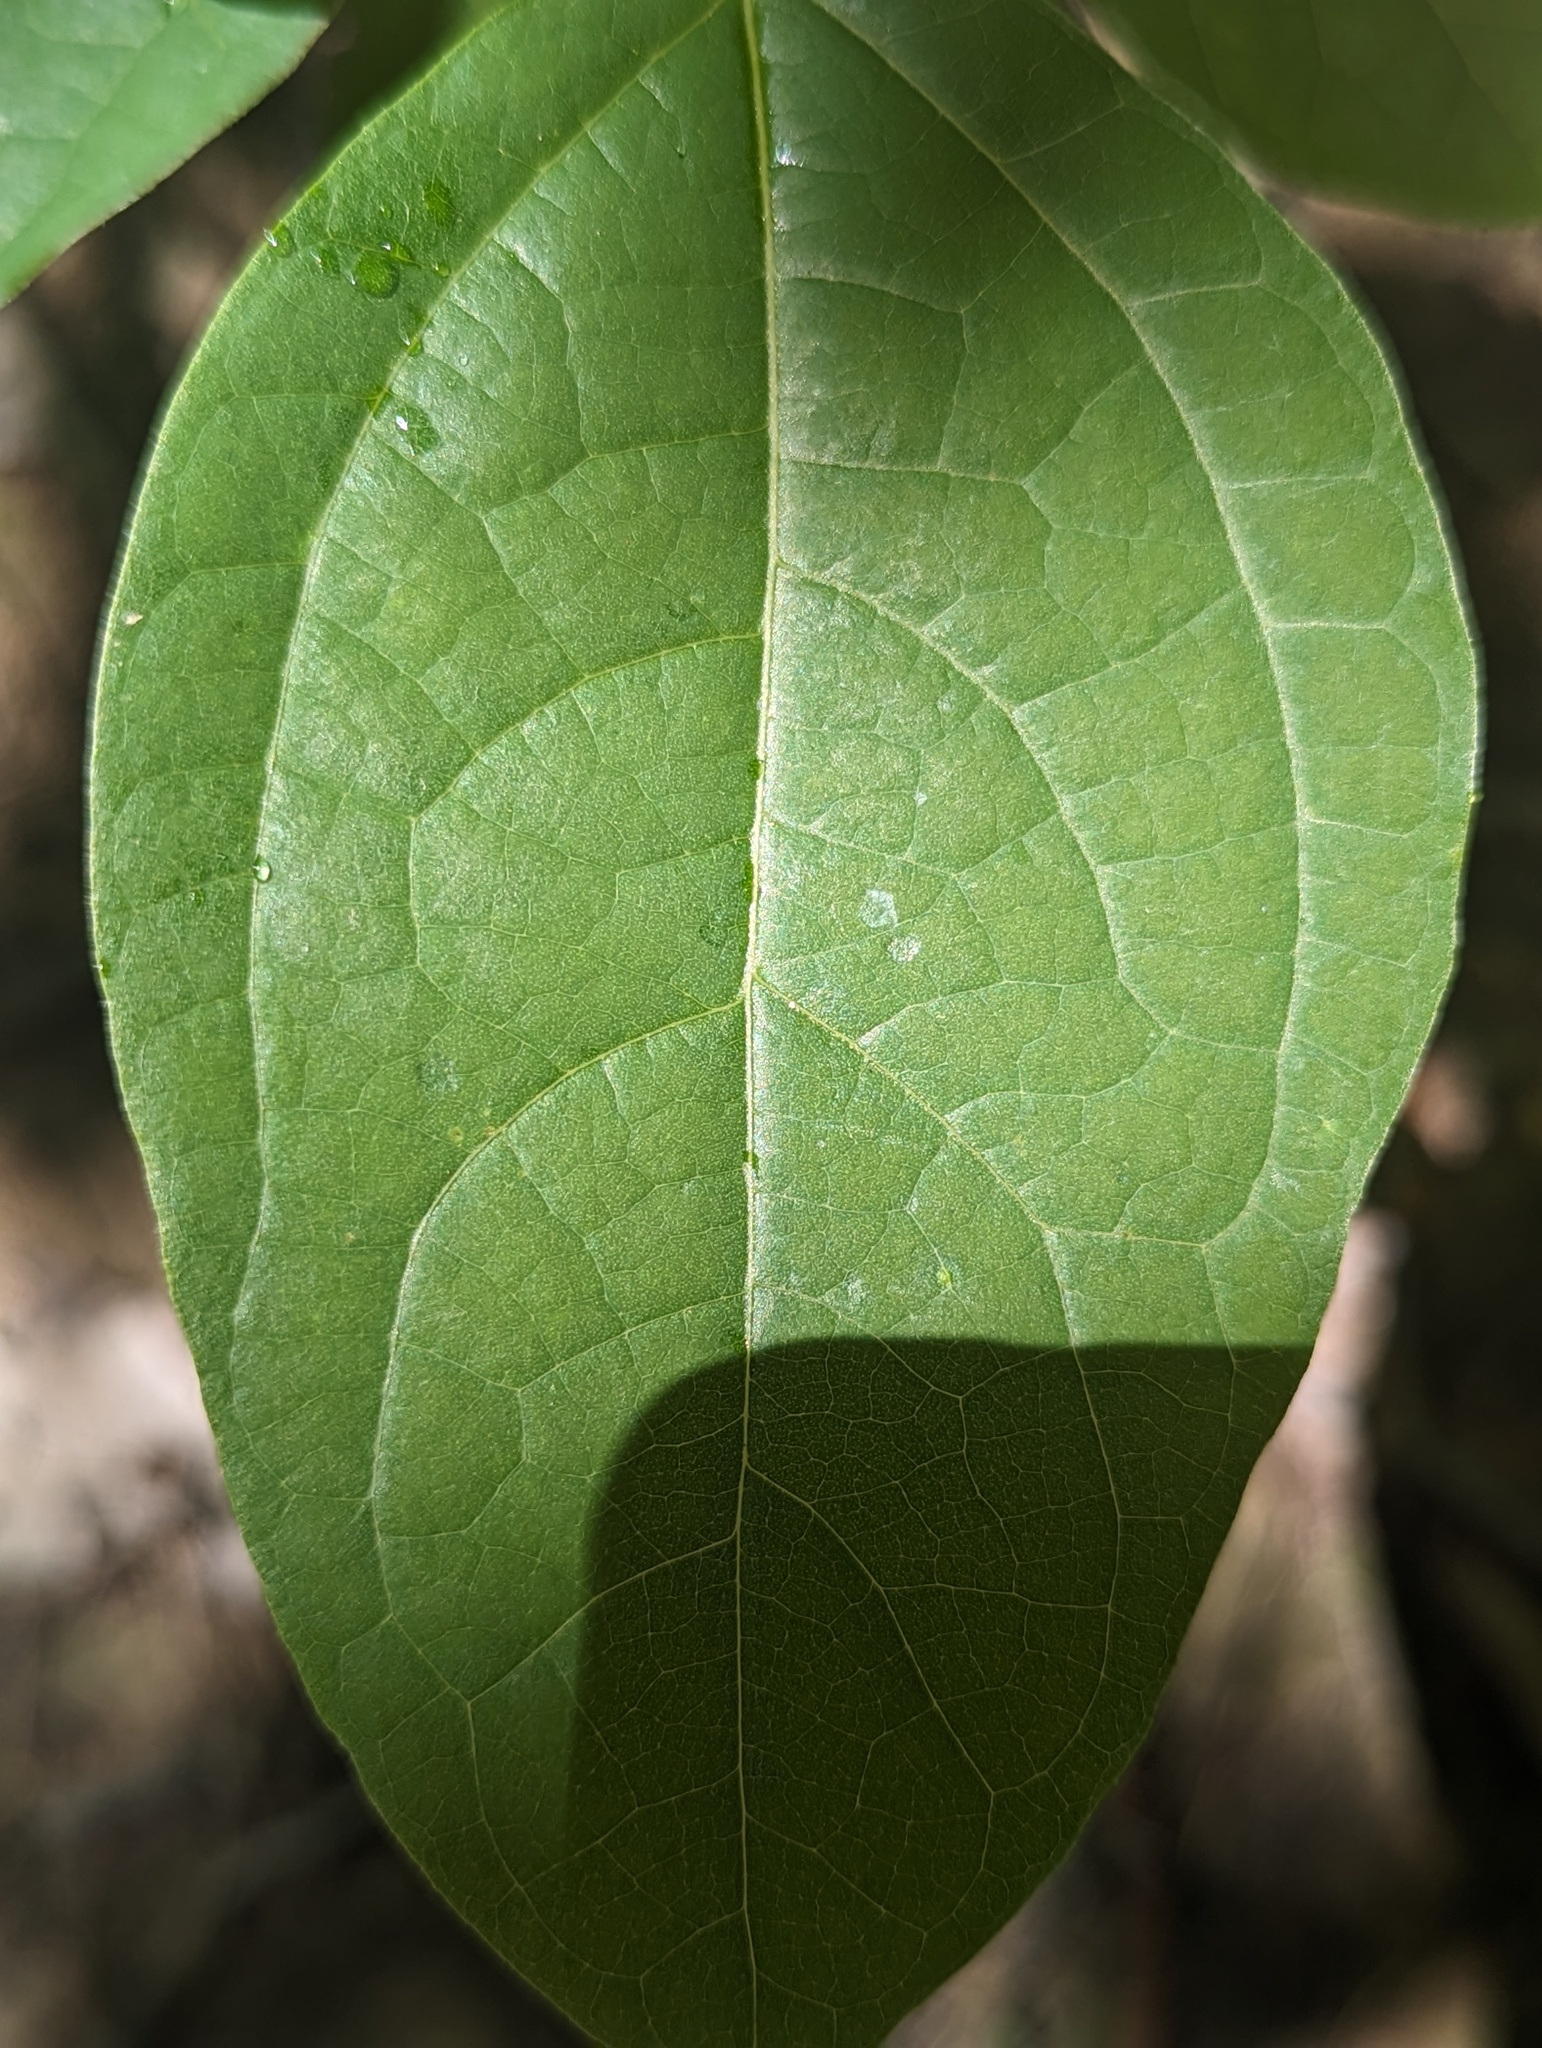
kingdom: Plantae
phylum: Tracheophyta
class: Magnoliopsida
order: Laurales
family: Lauraceae
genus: Sassafras
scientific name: Sassafras albidum
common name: Sassafras
